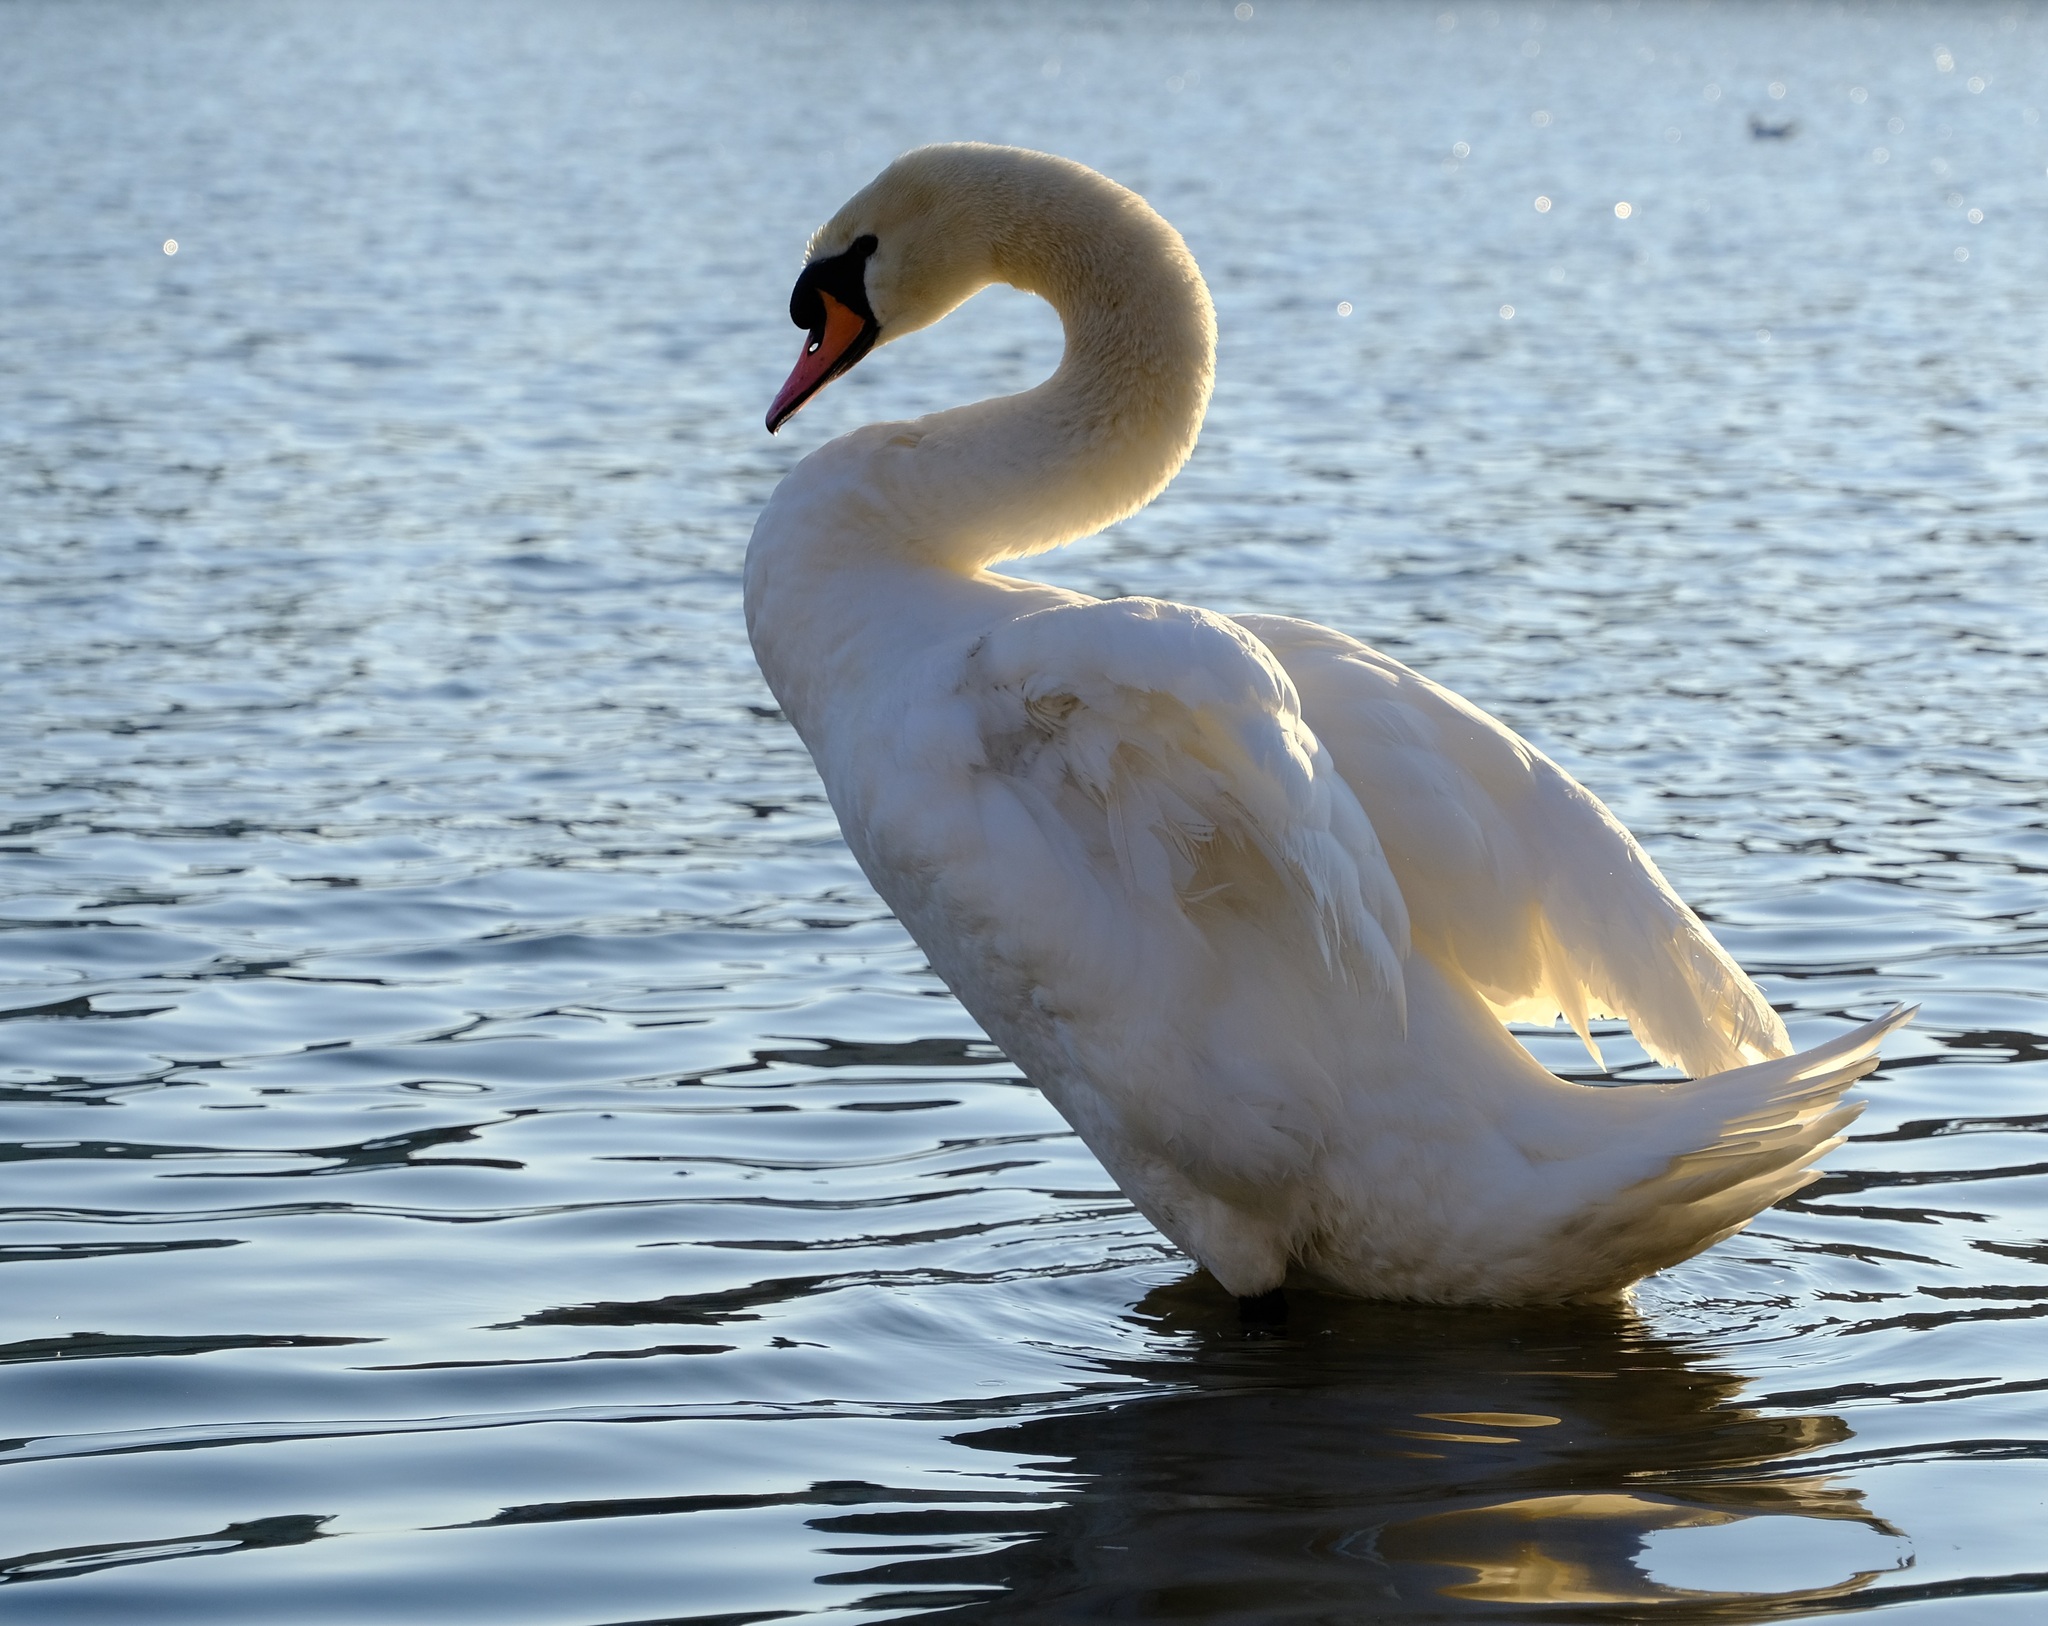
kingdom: Animalia
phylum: Chordata
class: Aves
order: Anseriformes
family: Anatidae
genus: Cygnus
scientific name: Cygnus olor
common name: Mute swan
